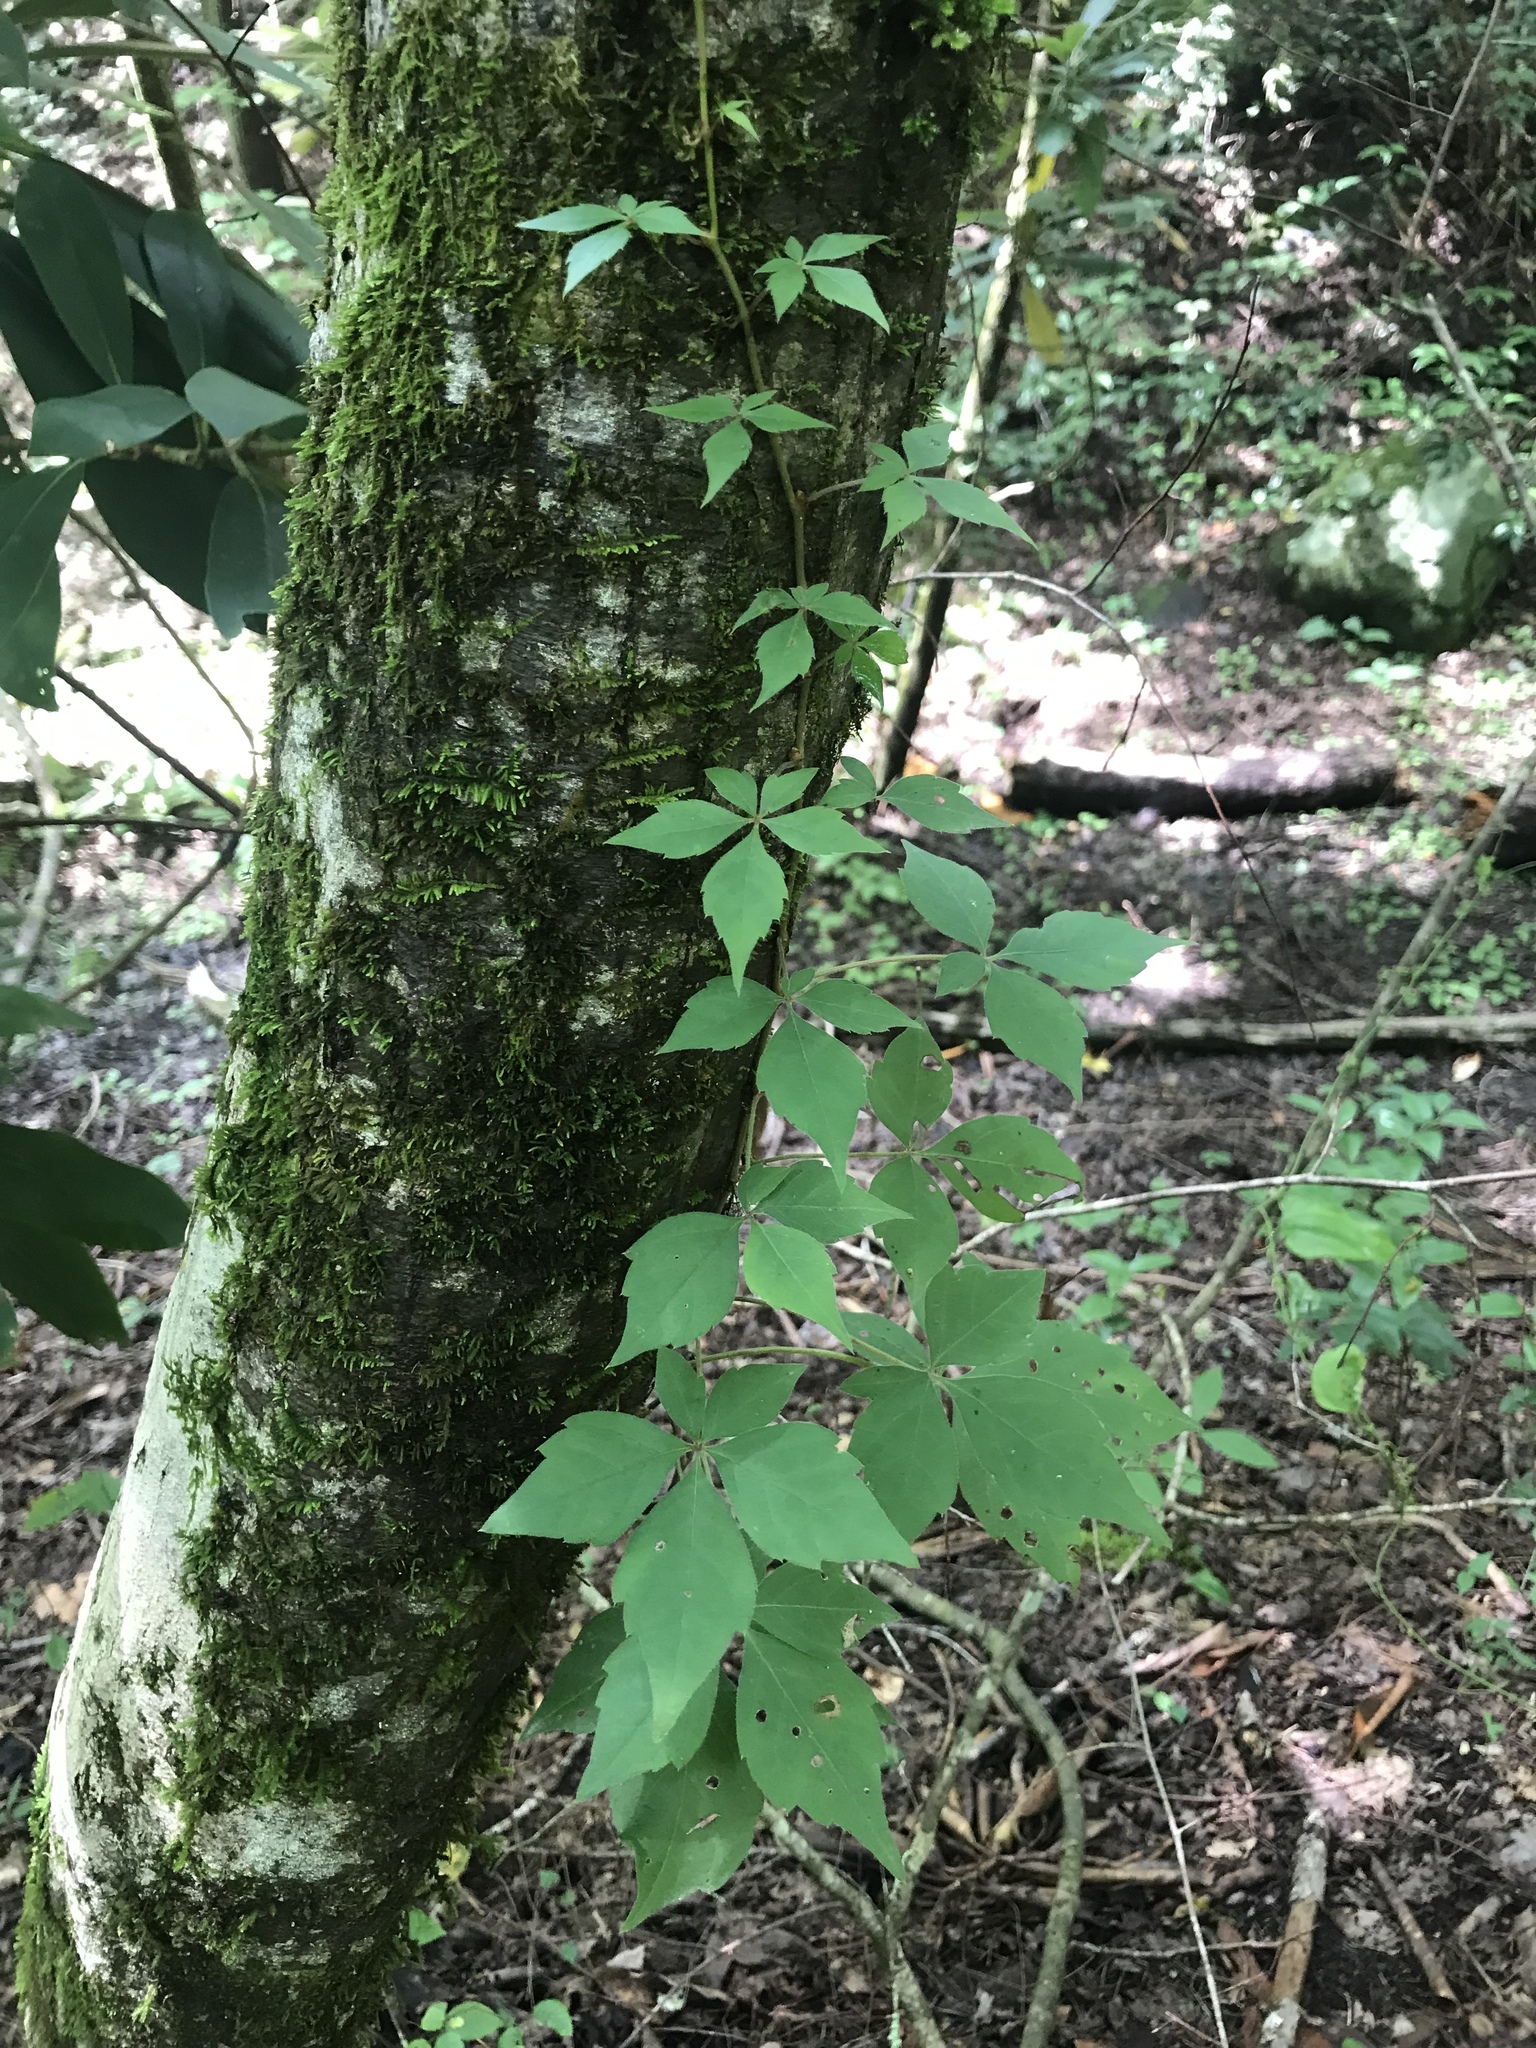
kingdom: Plantae
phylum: Tracheophyta
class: Magnoliopsida
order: Vitales
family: Vitaceae
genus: Parthenocissus
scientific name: Parthenocissus quinquefolia
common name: Virginia-creeper
